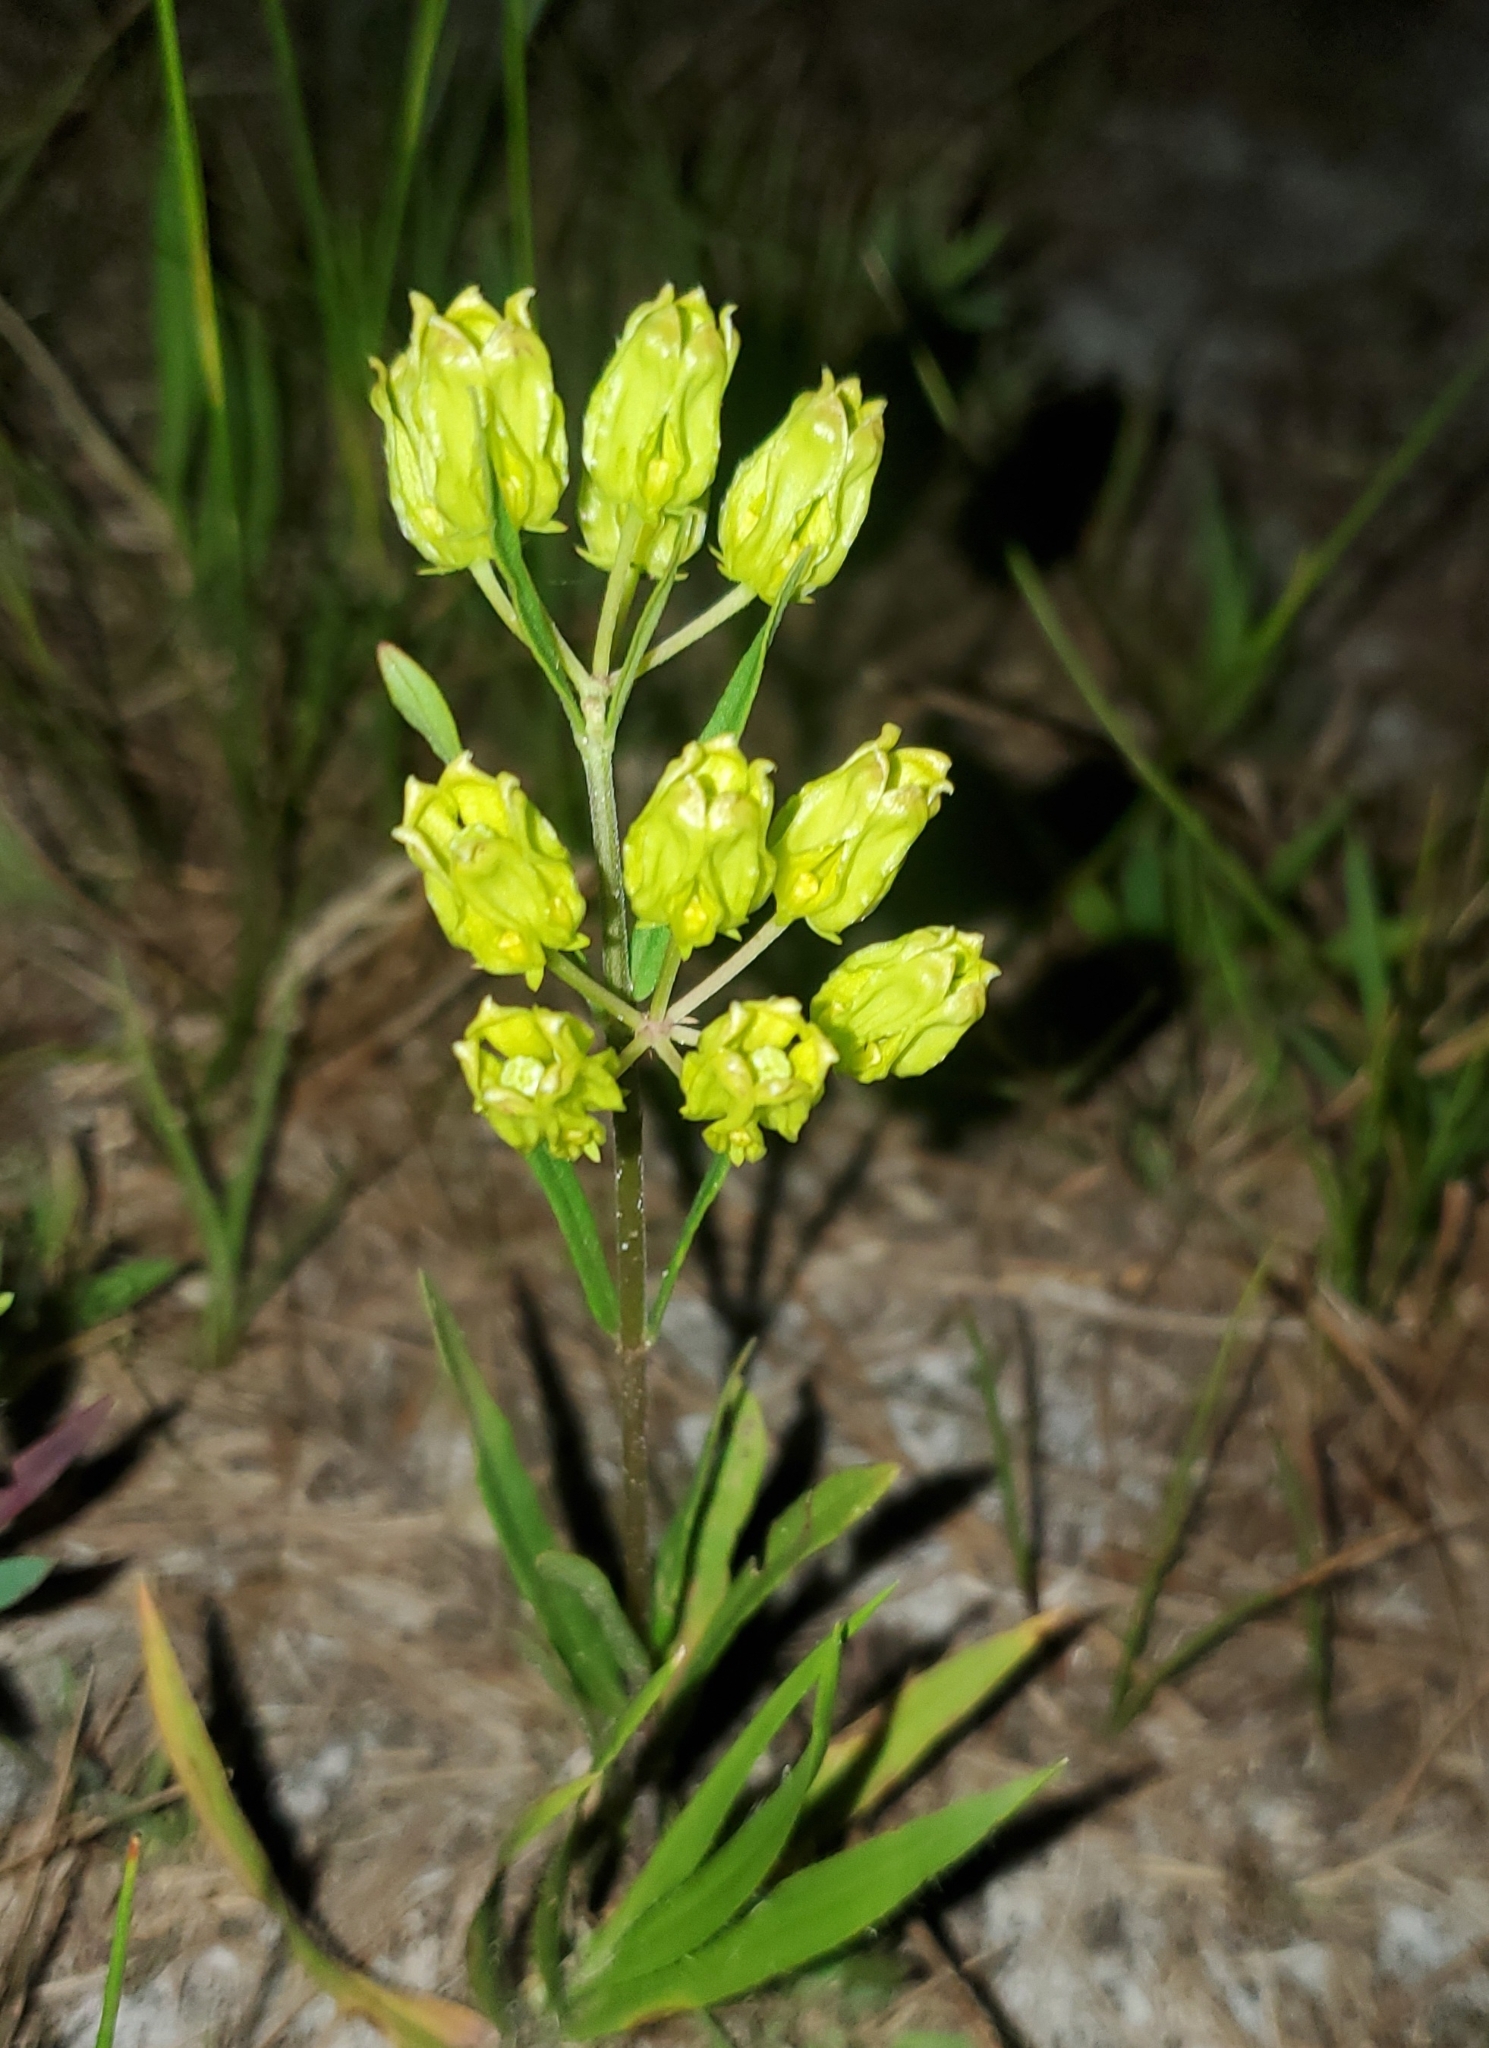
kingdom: Plantae
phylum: Tracheophyta
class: Magnoliopsida
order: Gentianales
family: Apocynaceae
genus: Asclepias
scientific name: Asclepias pedicellata
